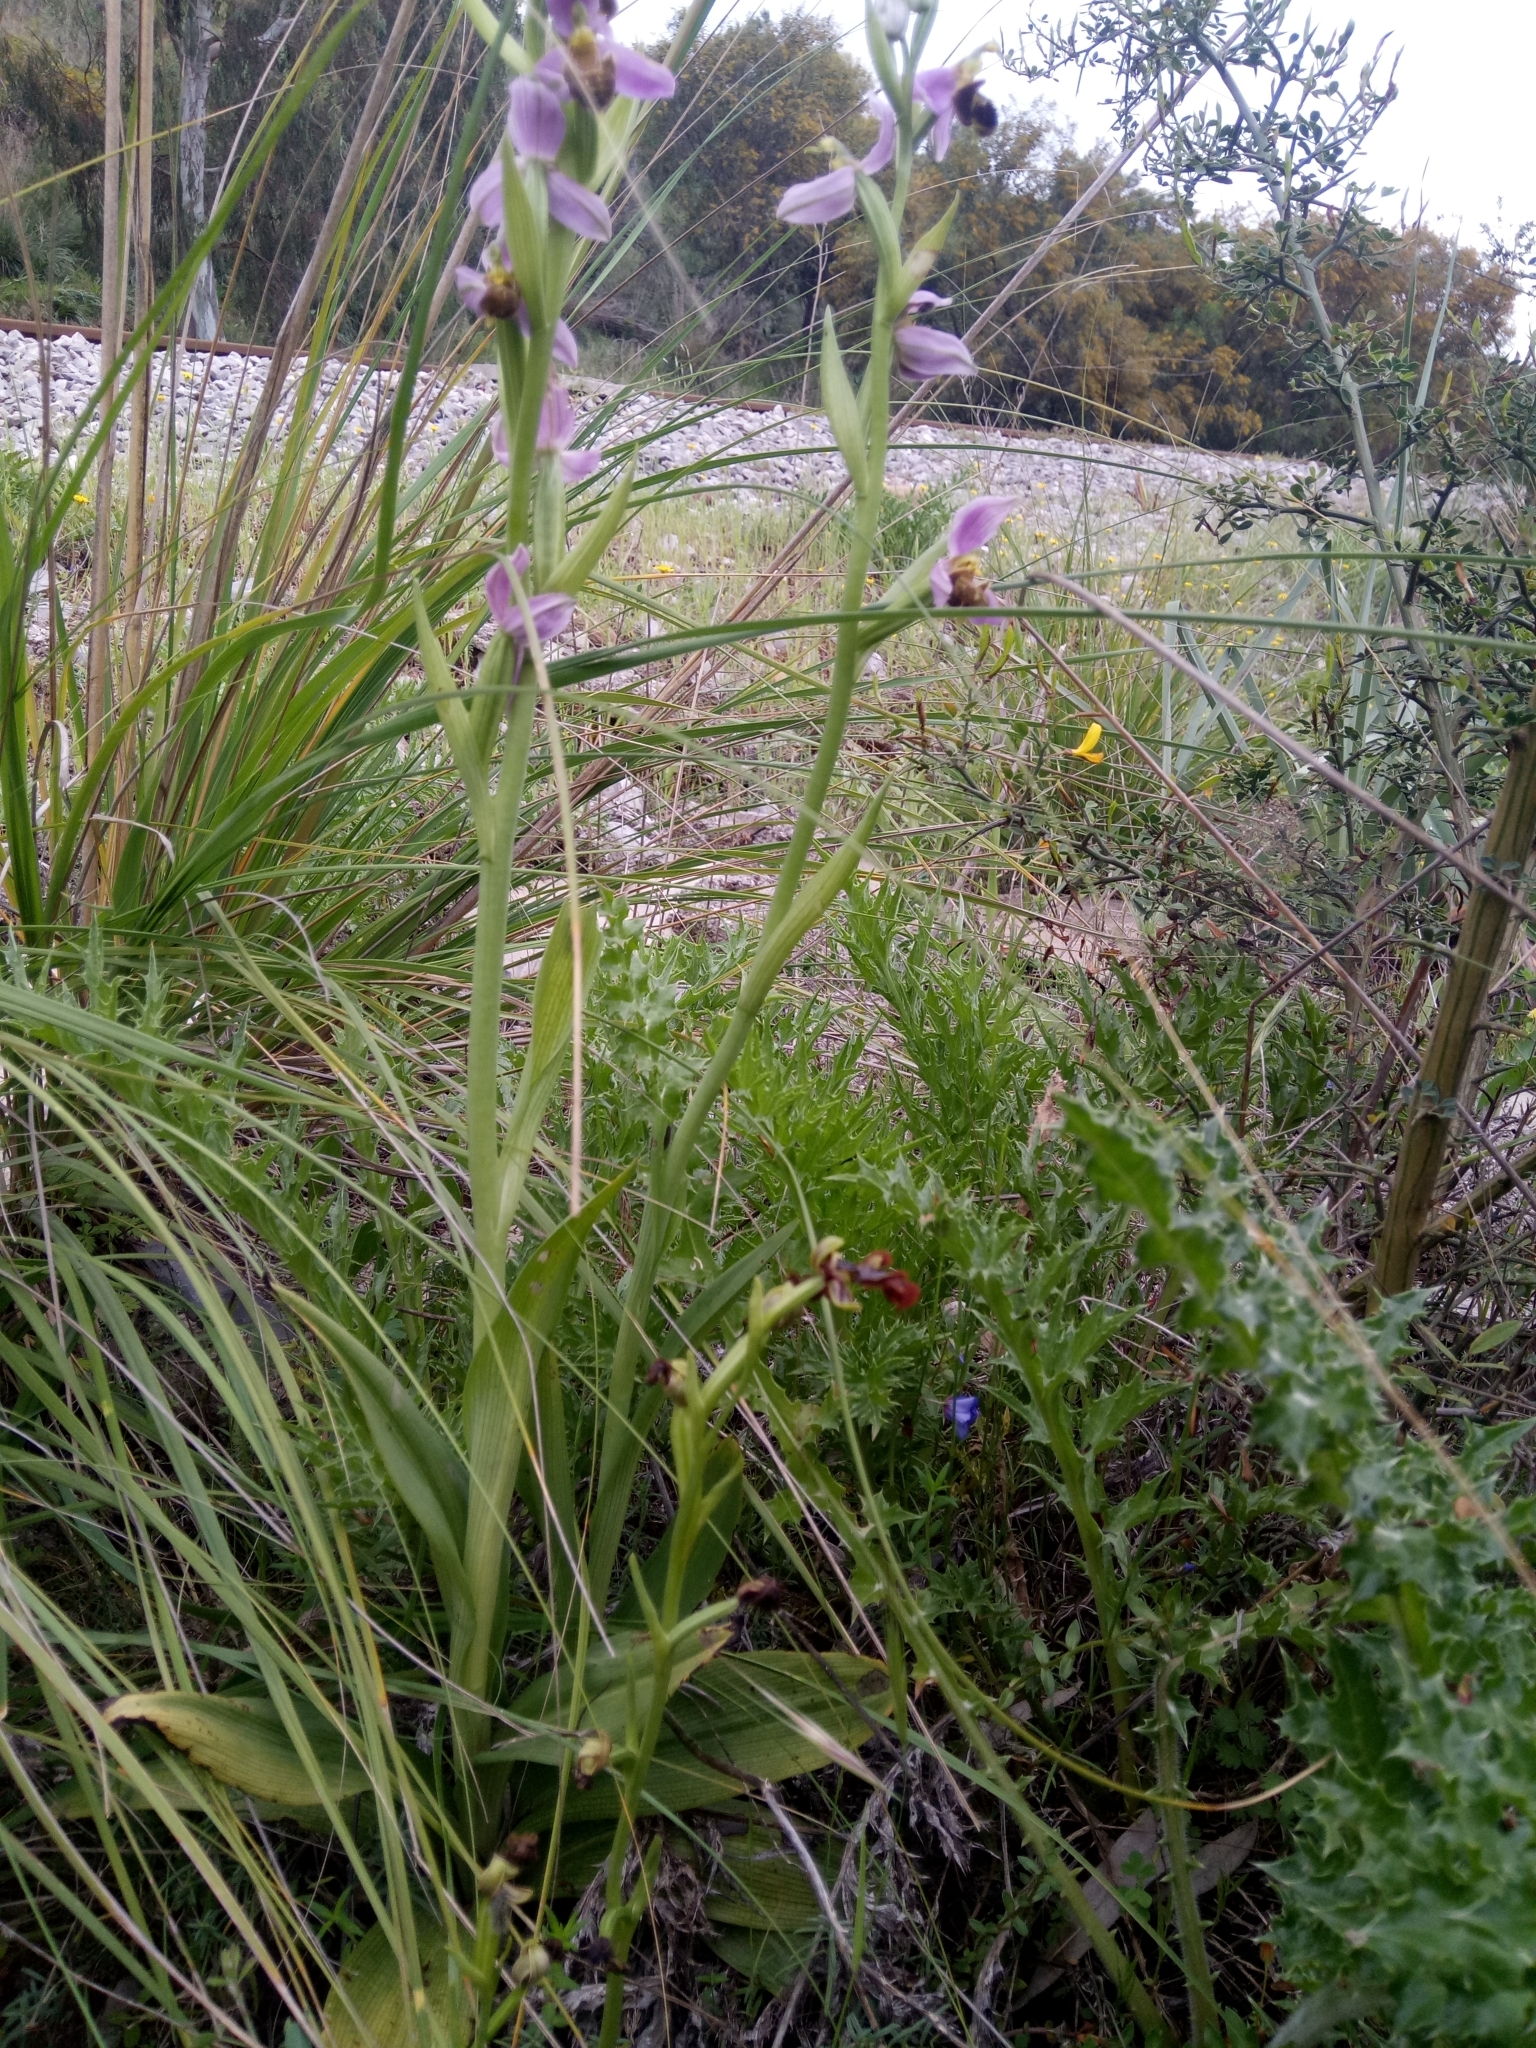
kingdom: Plantae
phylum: Tracheophyta
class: Liliopsida
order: Asparagales
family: Orchidaceae
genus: Ophrys
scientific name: Ophrys apifera
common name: Bee orchid
